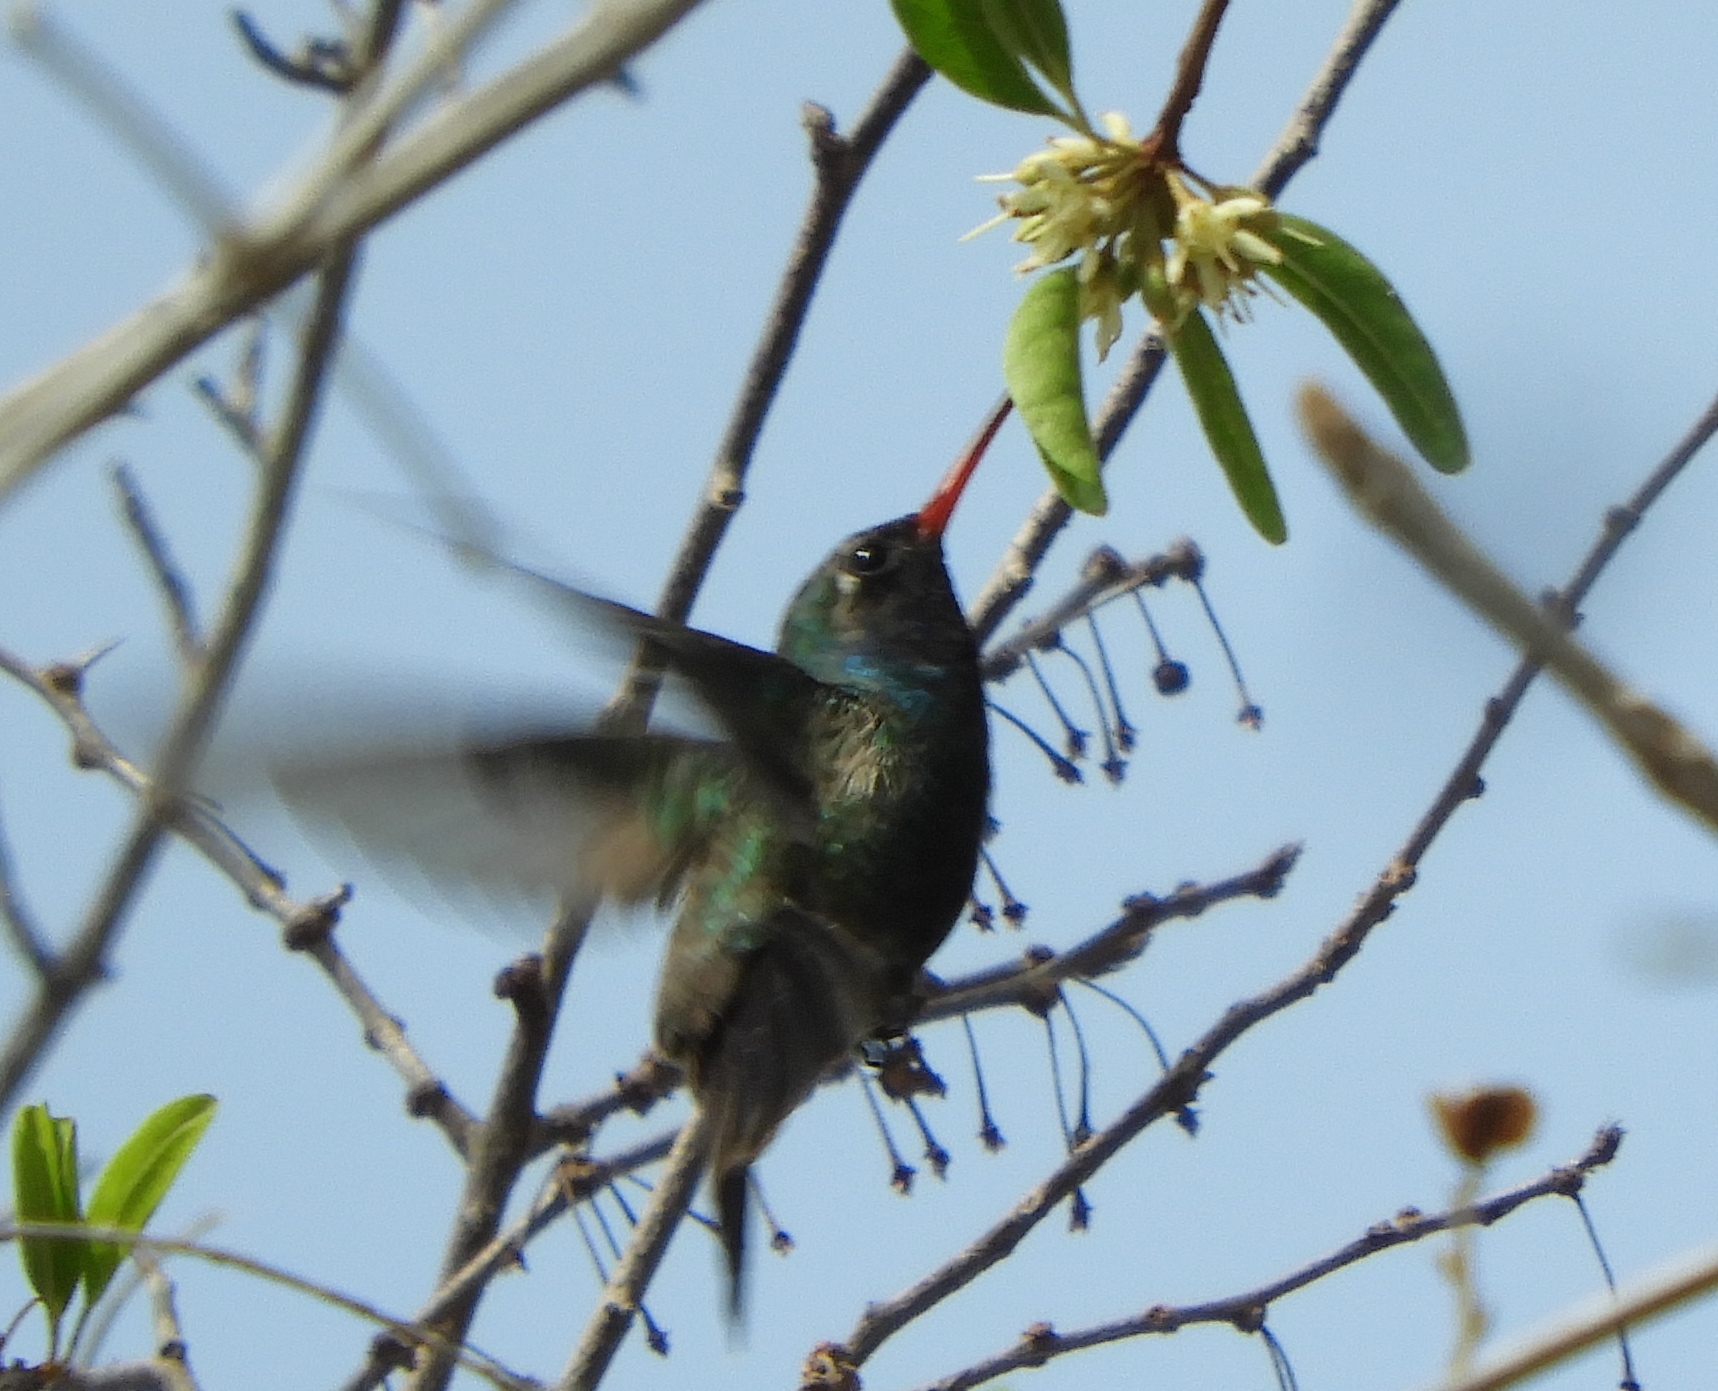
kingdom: Animalia
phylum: Chordata
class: Aves
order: Apodiformes
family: Trochilidae
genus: Cynanthus
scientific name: Cynanthus latirostris
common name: Broad-billed hummingbird
